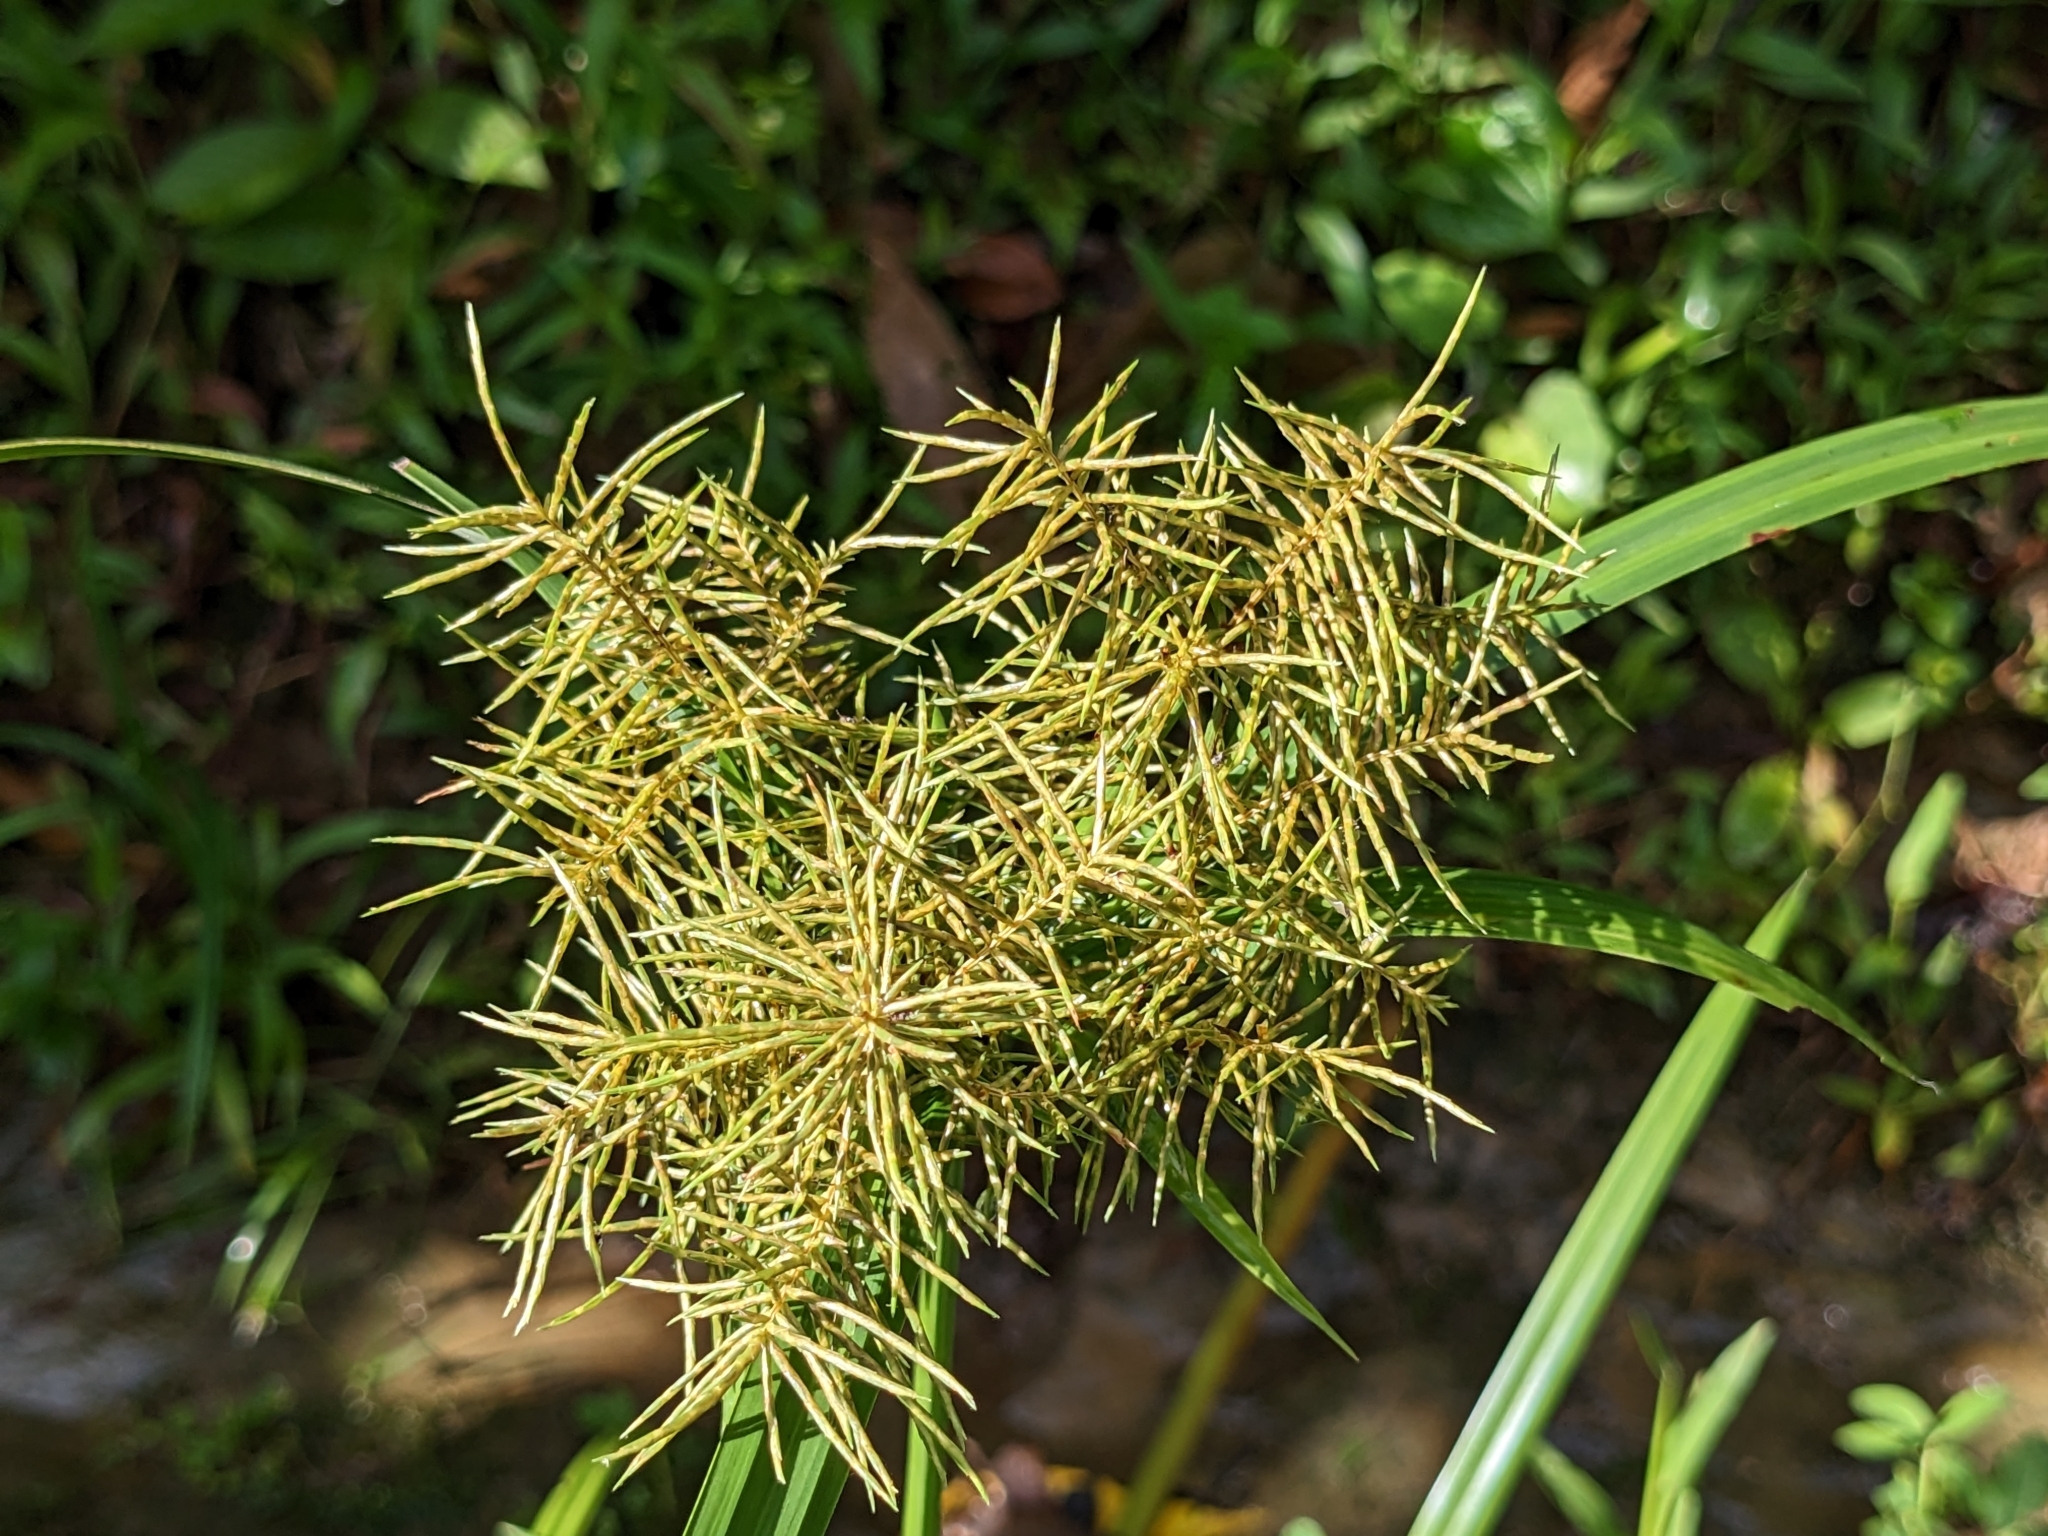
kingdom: Plantae
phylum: Tracheophyta
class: Liliopsida
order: Poales
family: Cyperaceae
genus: Cyperus
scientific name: Cyperus odoratus
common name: Fragrant flatsedge
